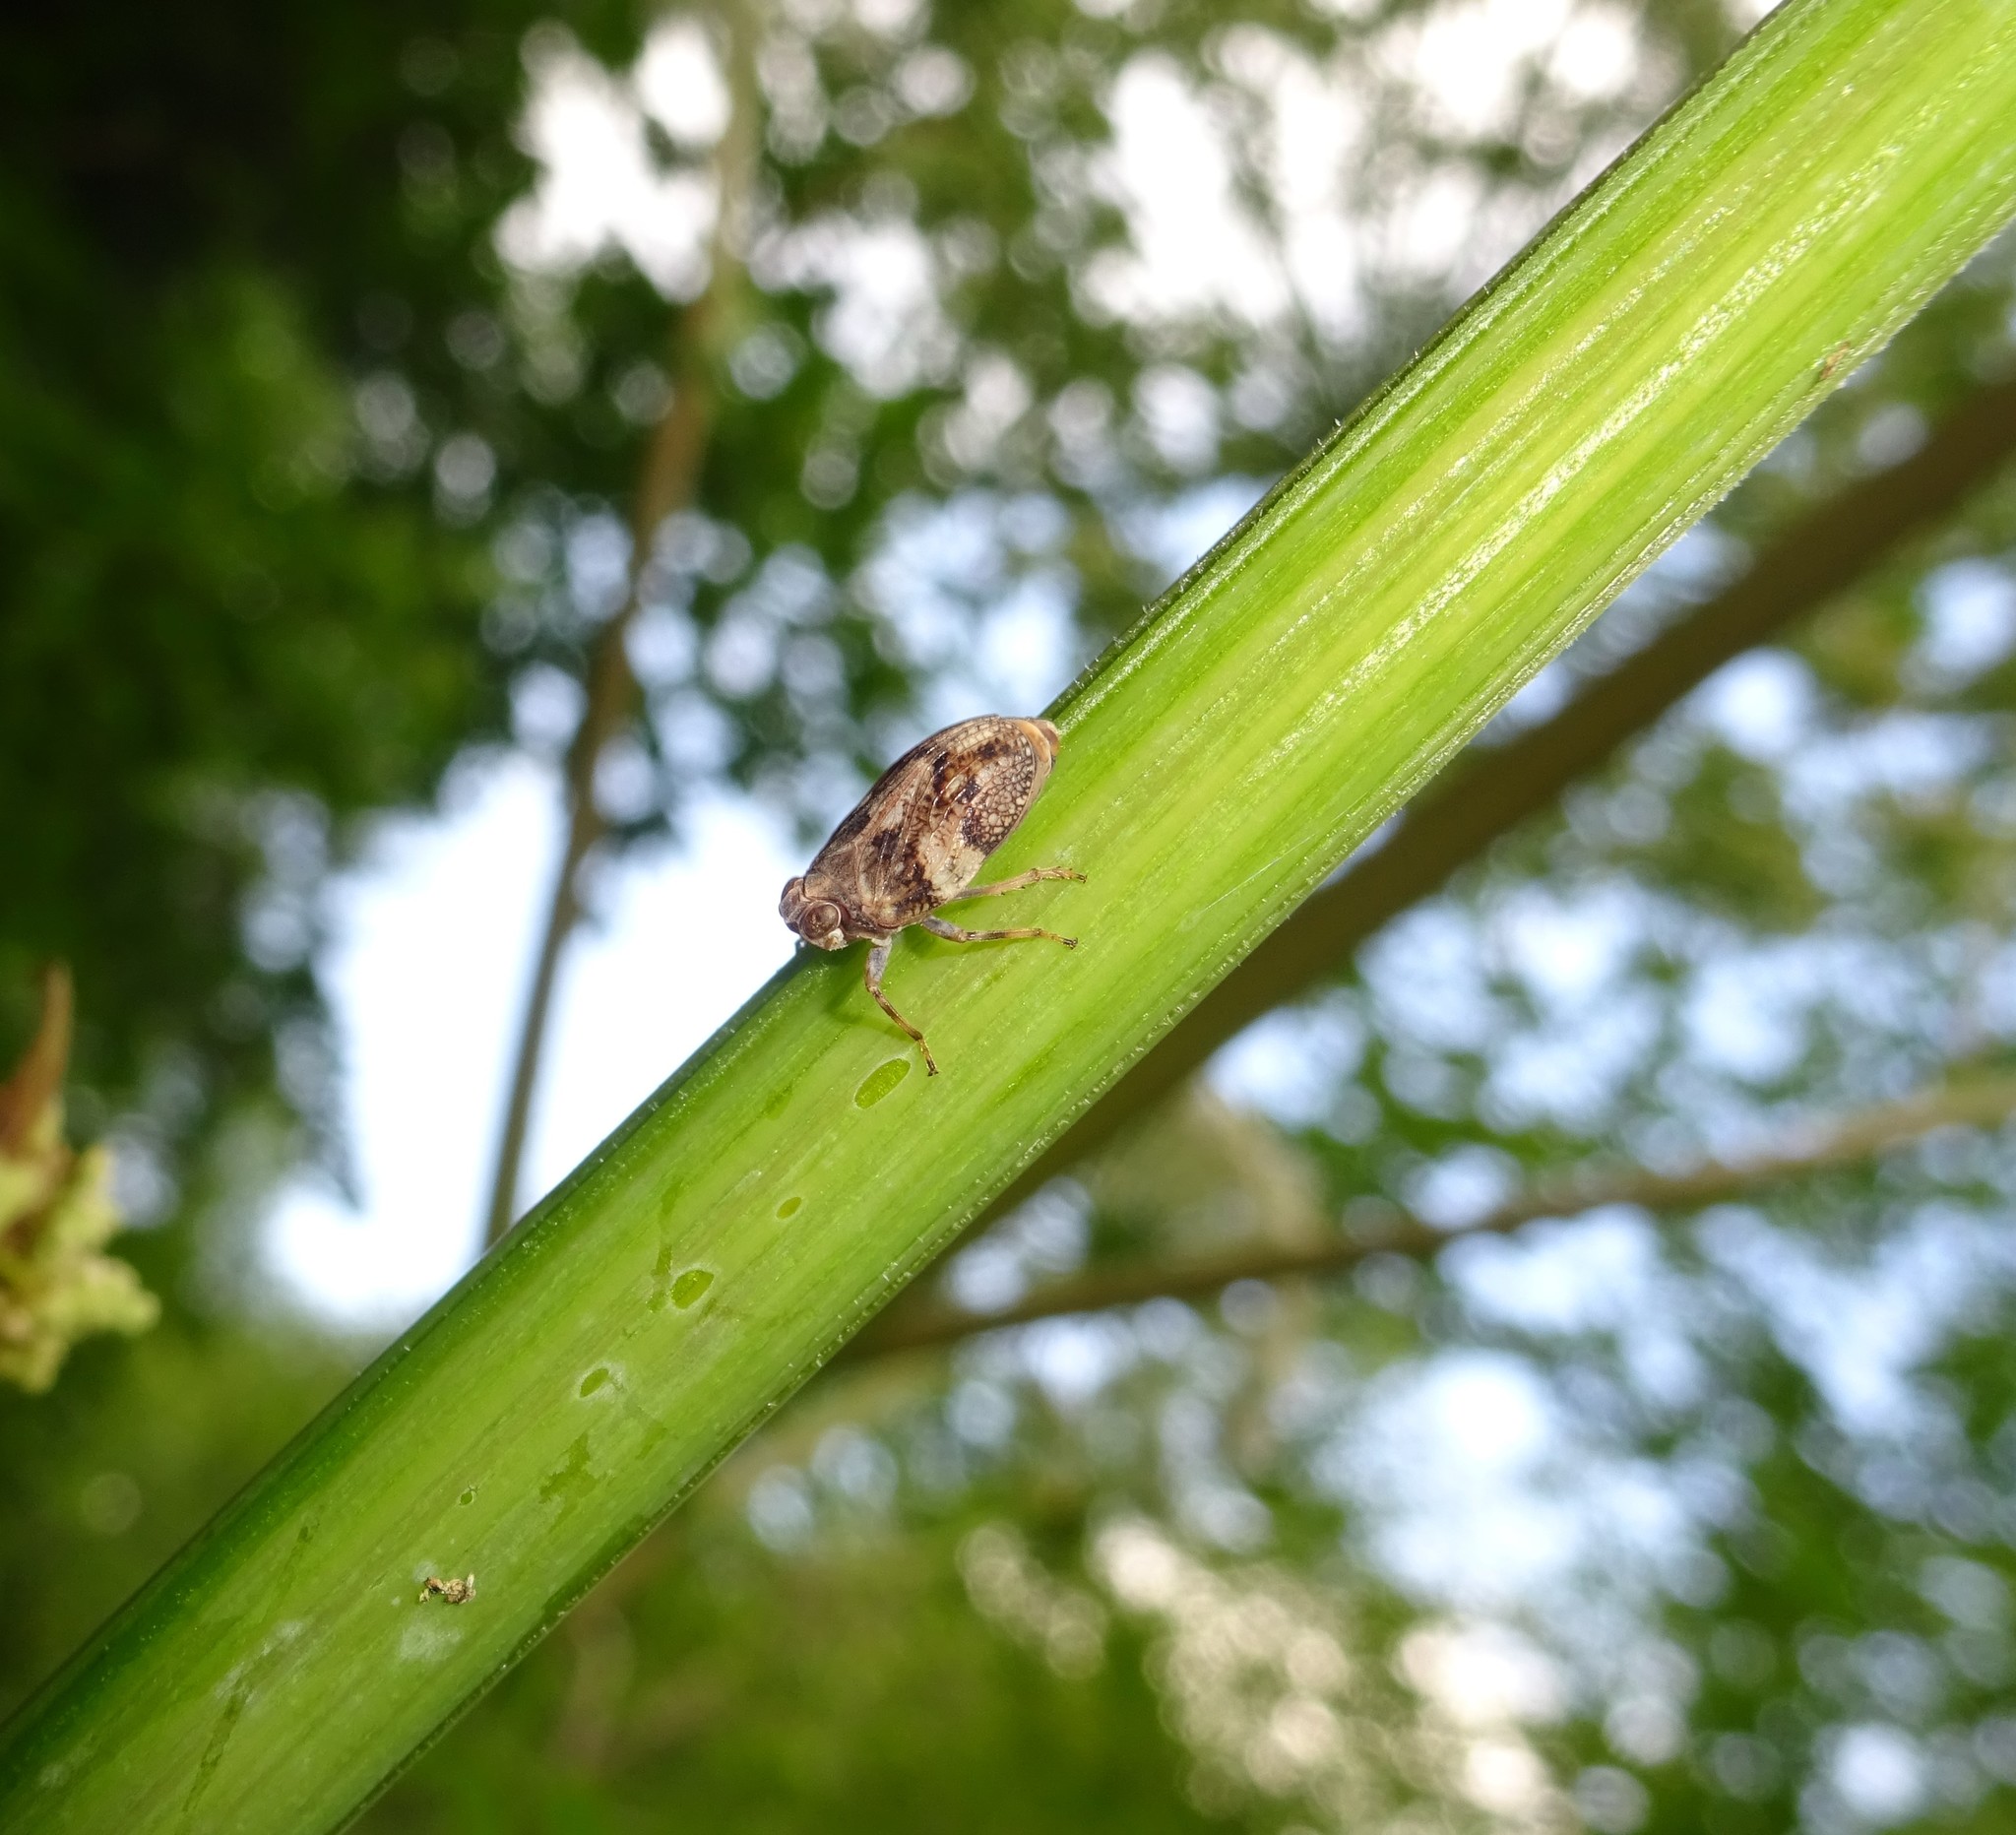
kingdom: Animalia
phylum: Arthropoda
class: Insecta
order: Hemiptera
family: Issidae
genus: Issus
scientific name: Issus coleoptratus
